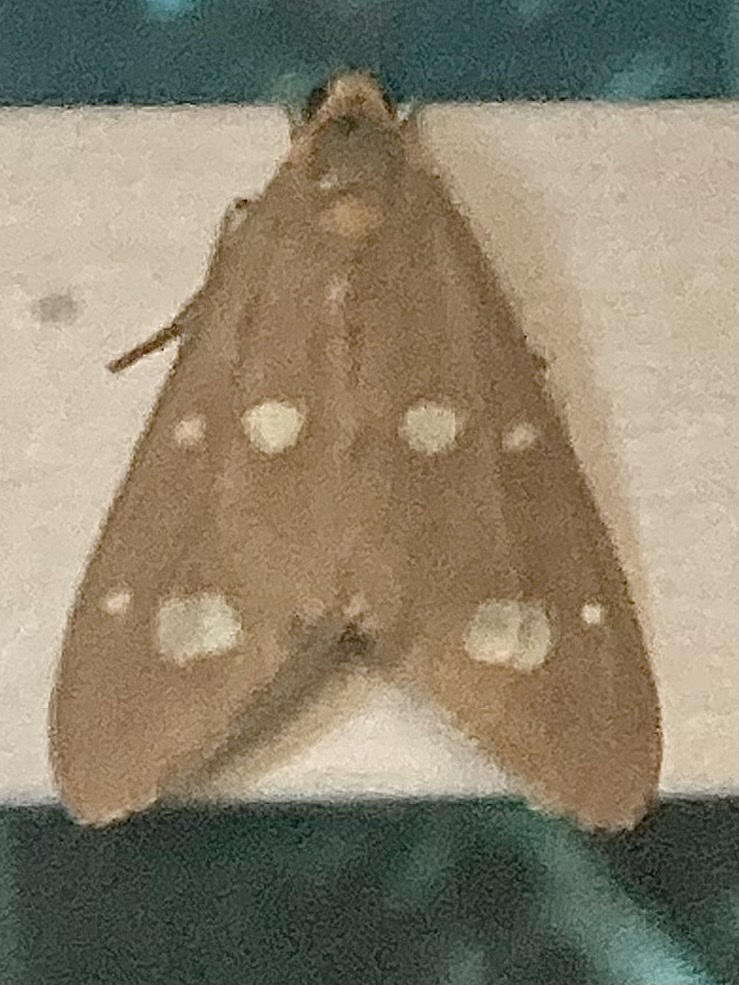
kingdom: Animalia
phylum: Arthropoda
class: Insecta
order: Lepidoptera
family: Erebidae
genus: Dysauxes
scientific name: Dysauxes punctata
